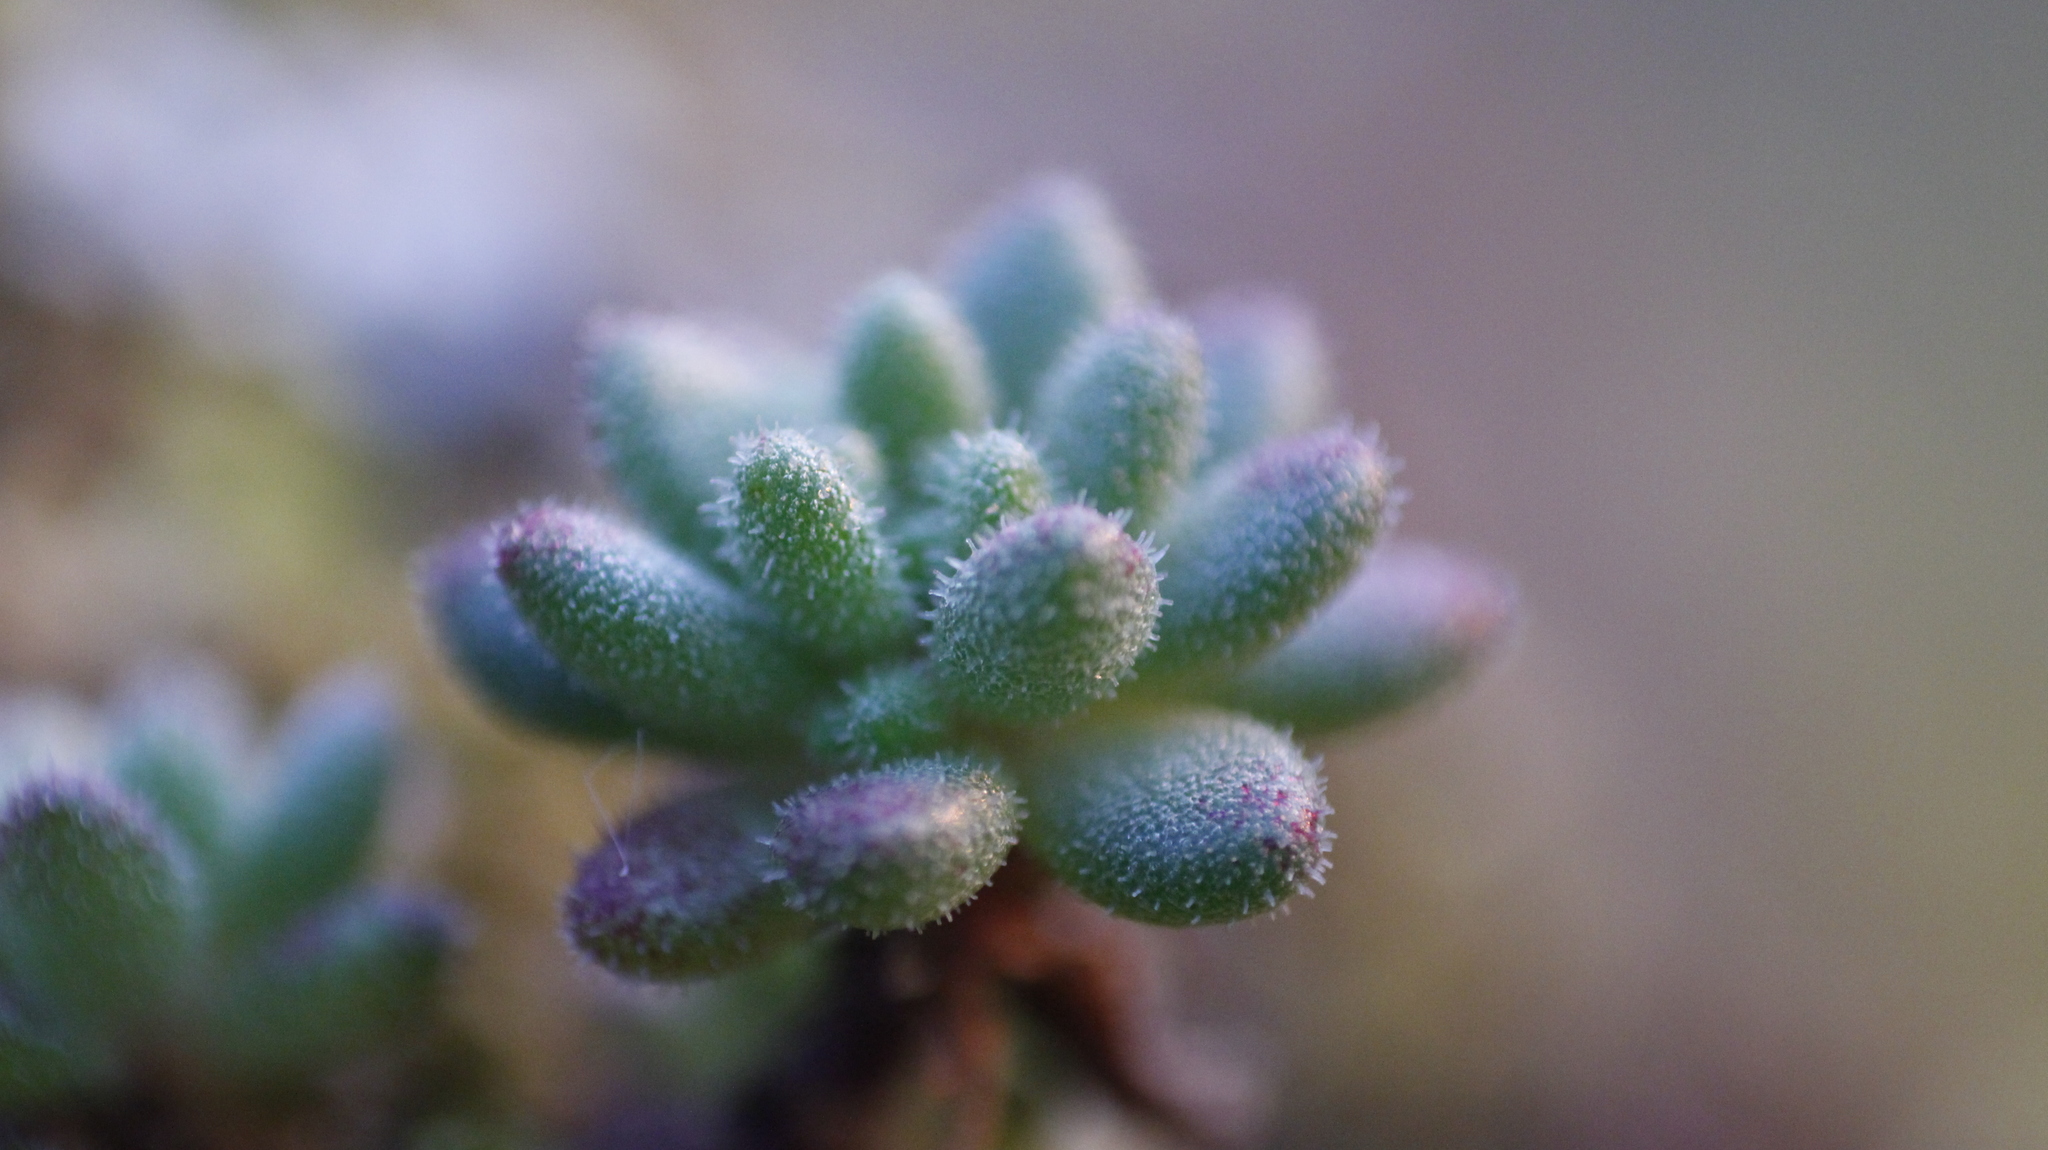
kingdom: Plantae
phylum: Tracheophyta
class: Magnoliopsida
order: Saxifragales
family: Crassulaceae
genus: Sedum
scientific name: Sedum hirsutum
